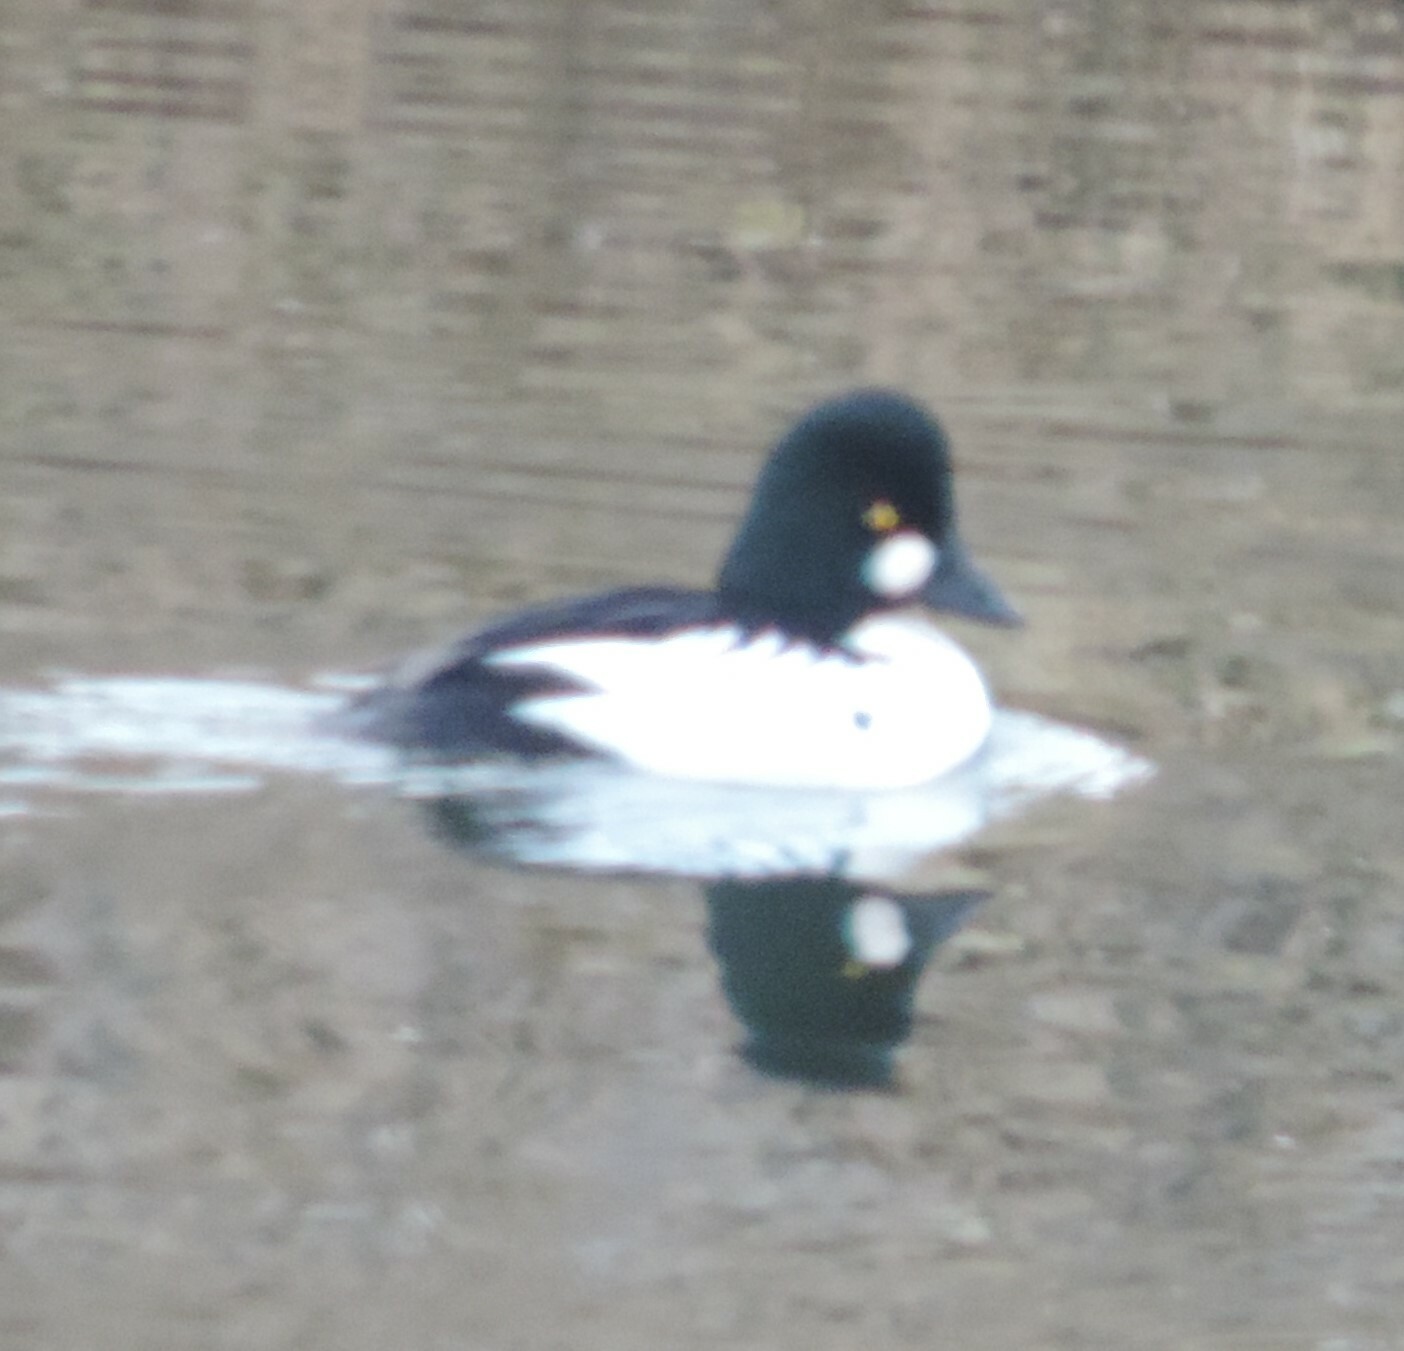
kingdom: Animalia
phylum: Chordata
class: Aves
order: Anseriformes
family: Anatidae
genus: Bucephala
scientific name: Bucephala clangula
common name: Common goldeneye
